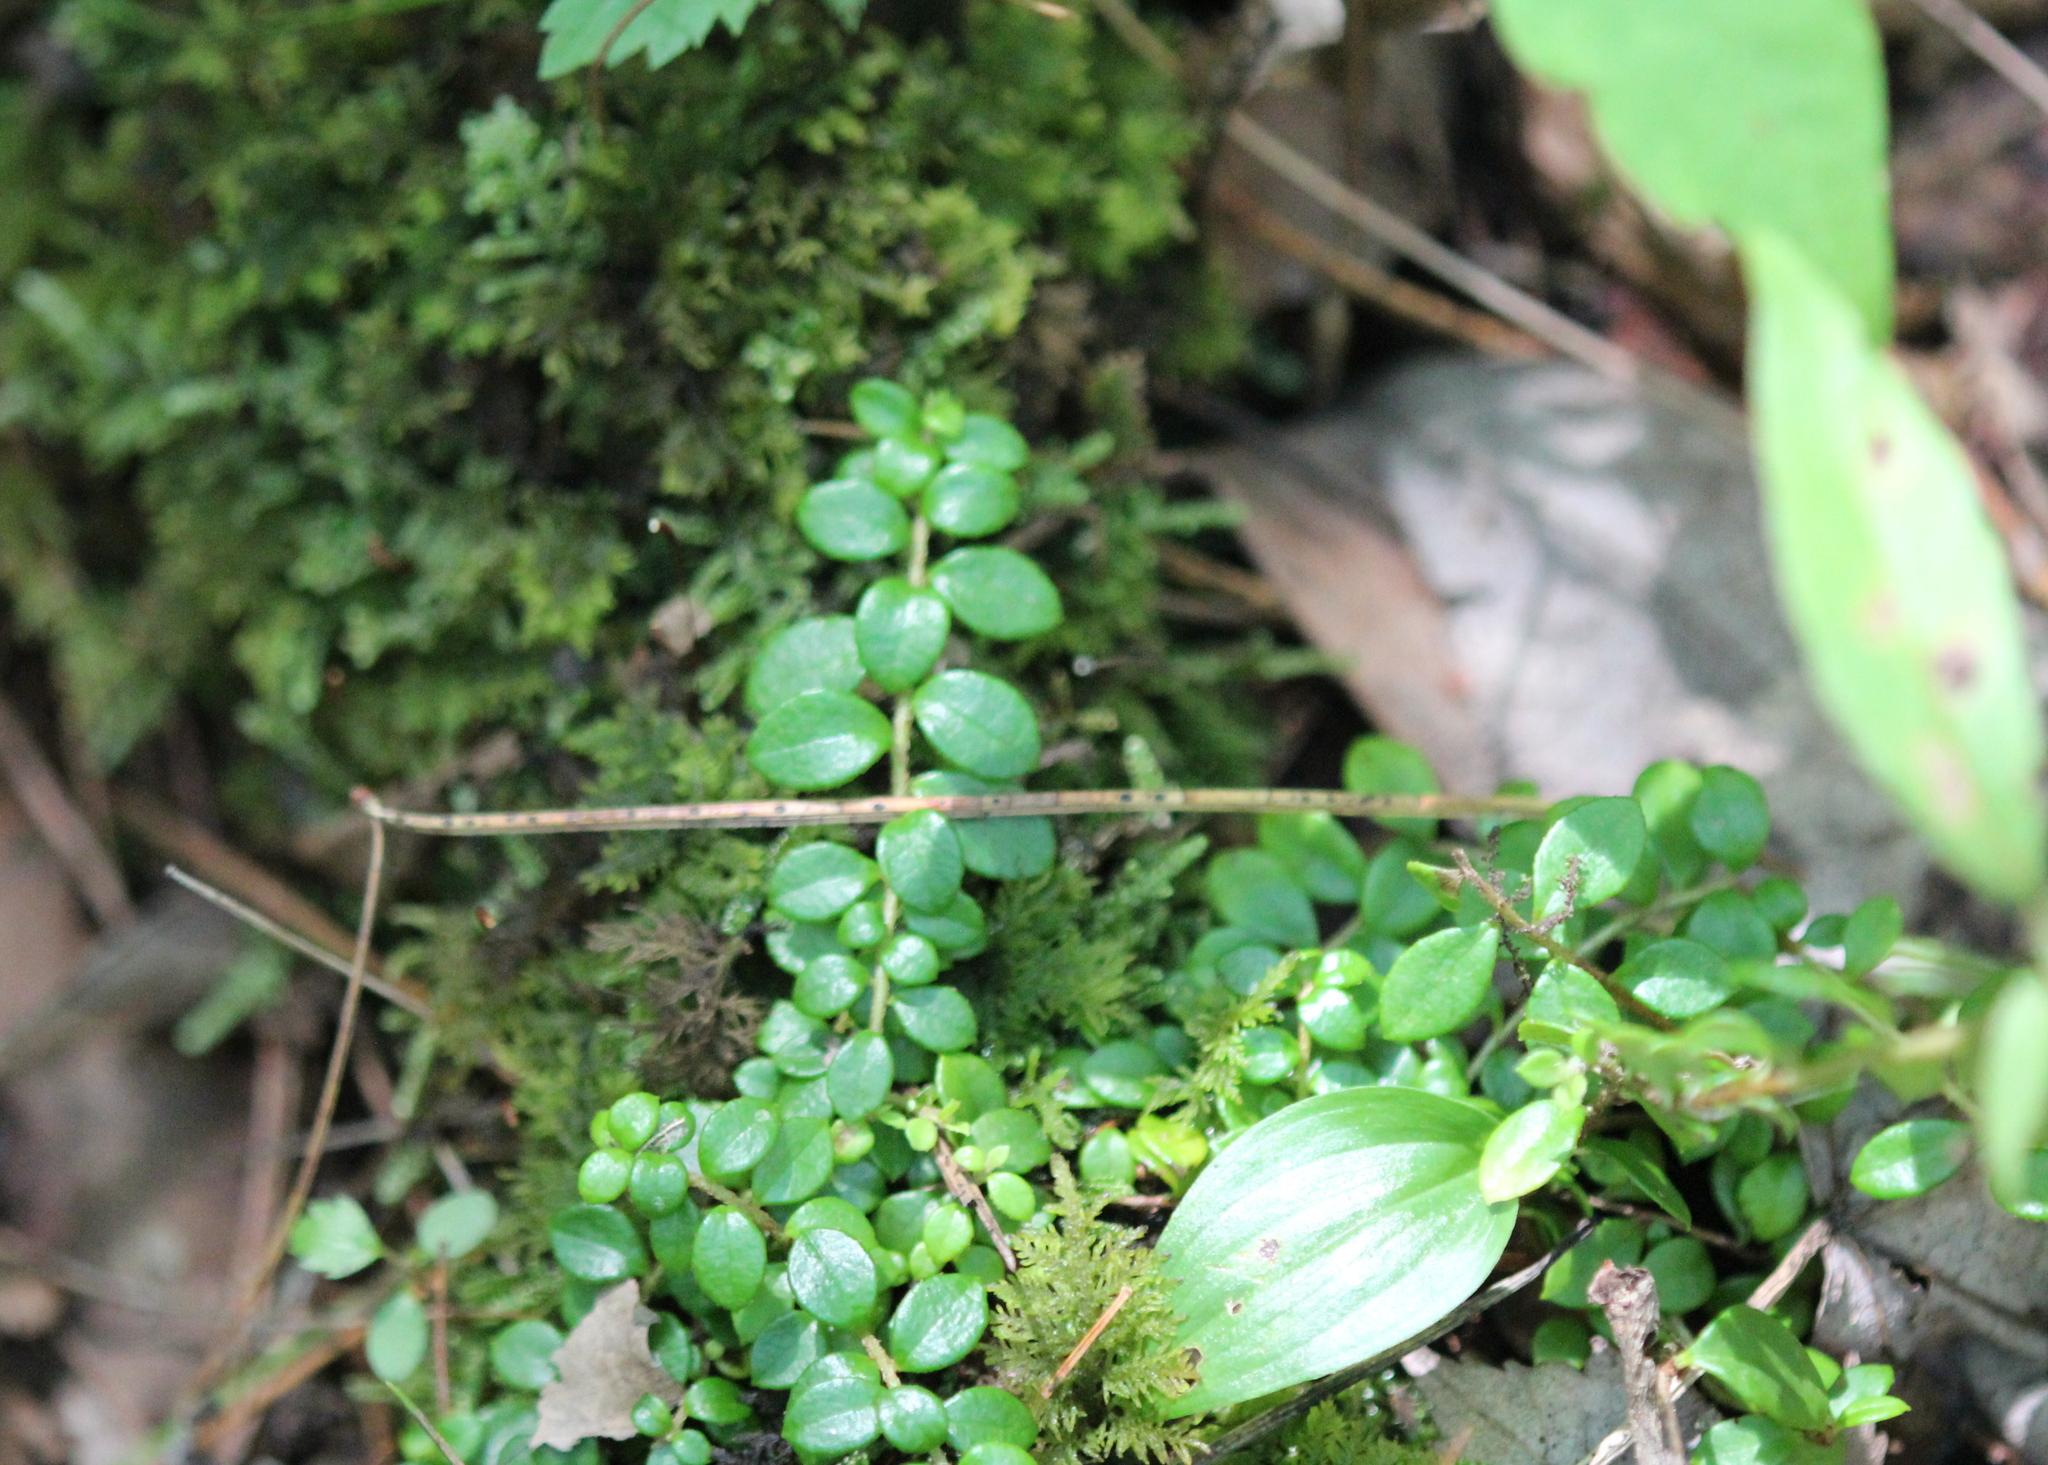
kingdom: Plantae
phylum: Tracheophyta
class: Magnoliopsida
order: Ericales
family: Ericaceae
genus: Gaultheria
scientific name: Gaultheria hispidula
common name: Cancer wintergreen
